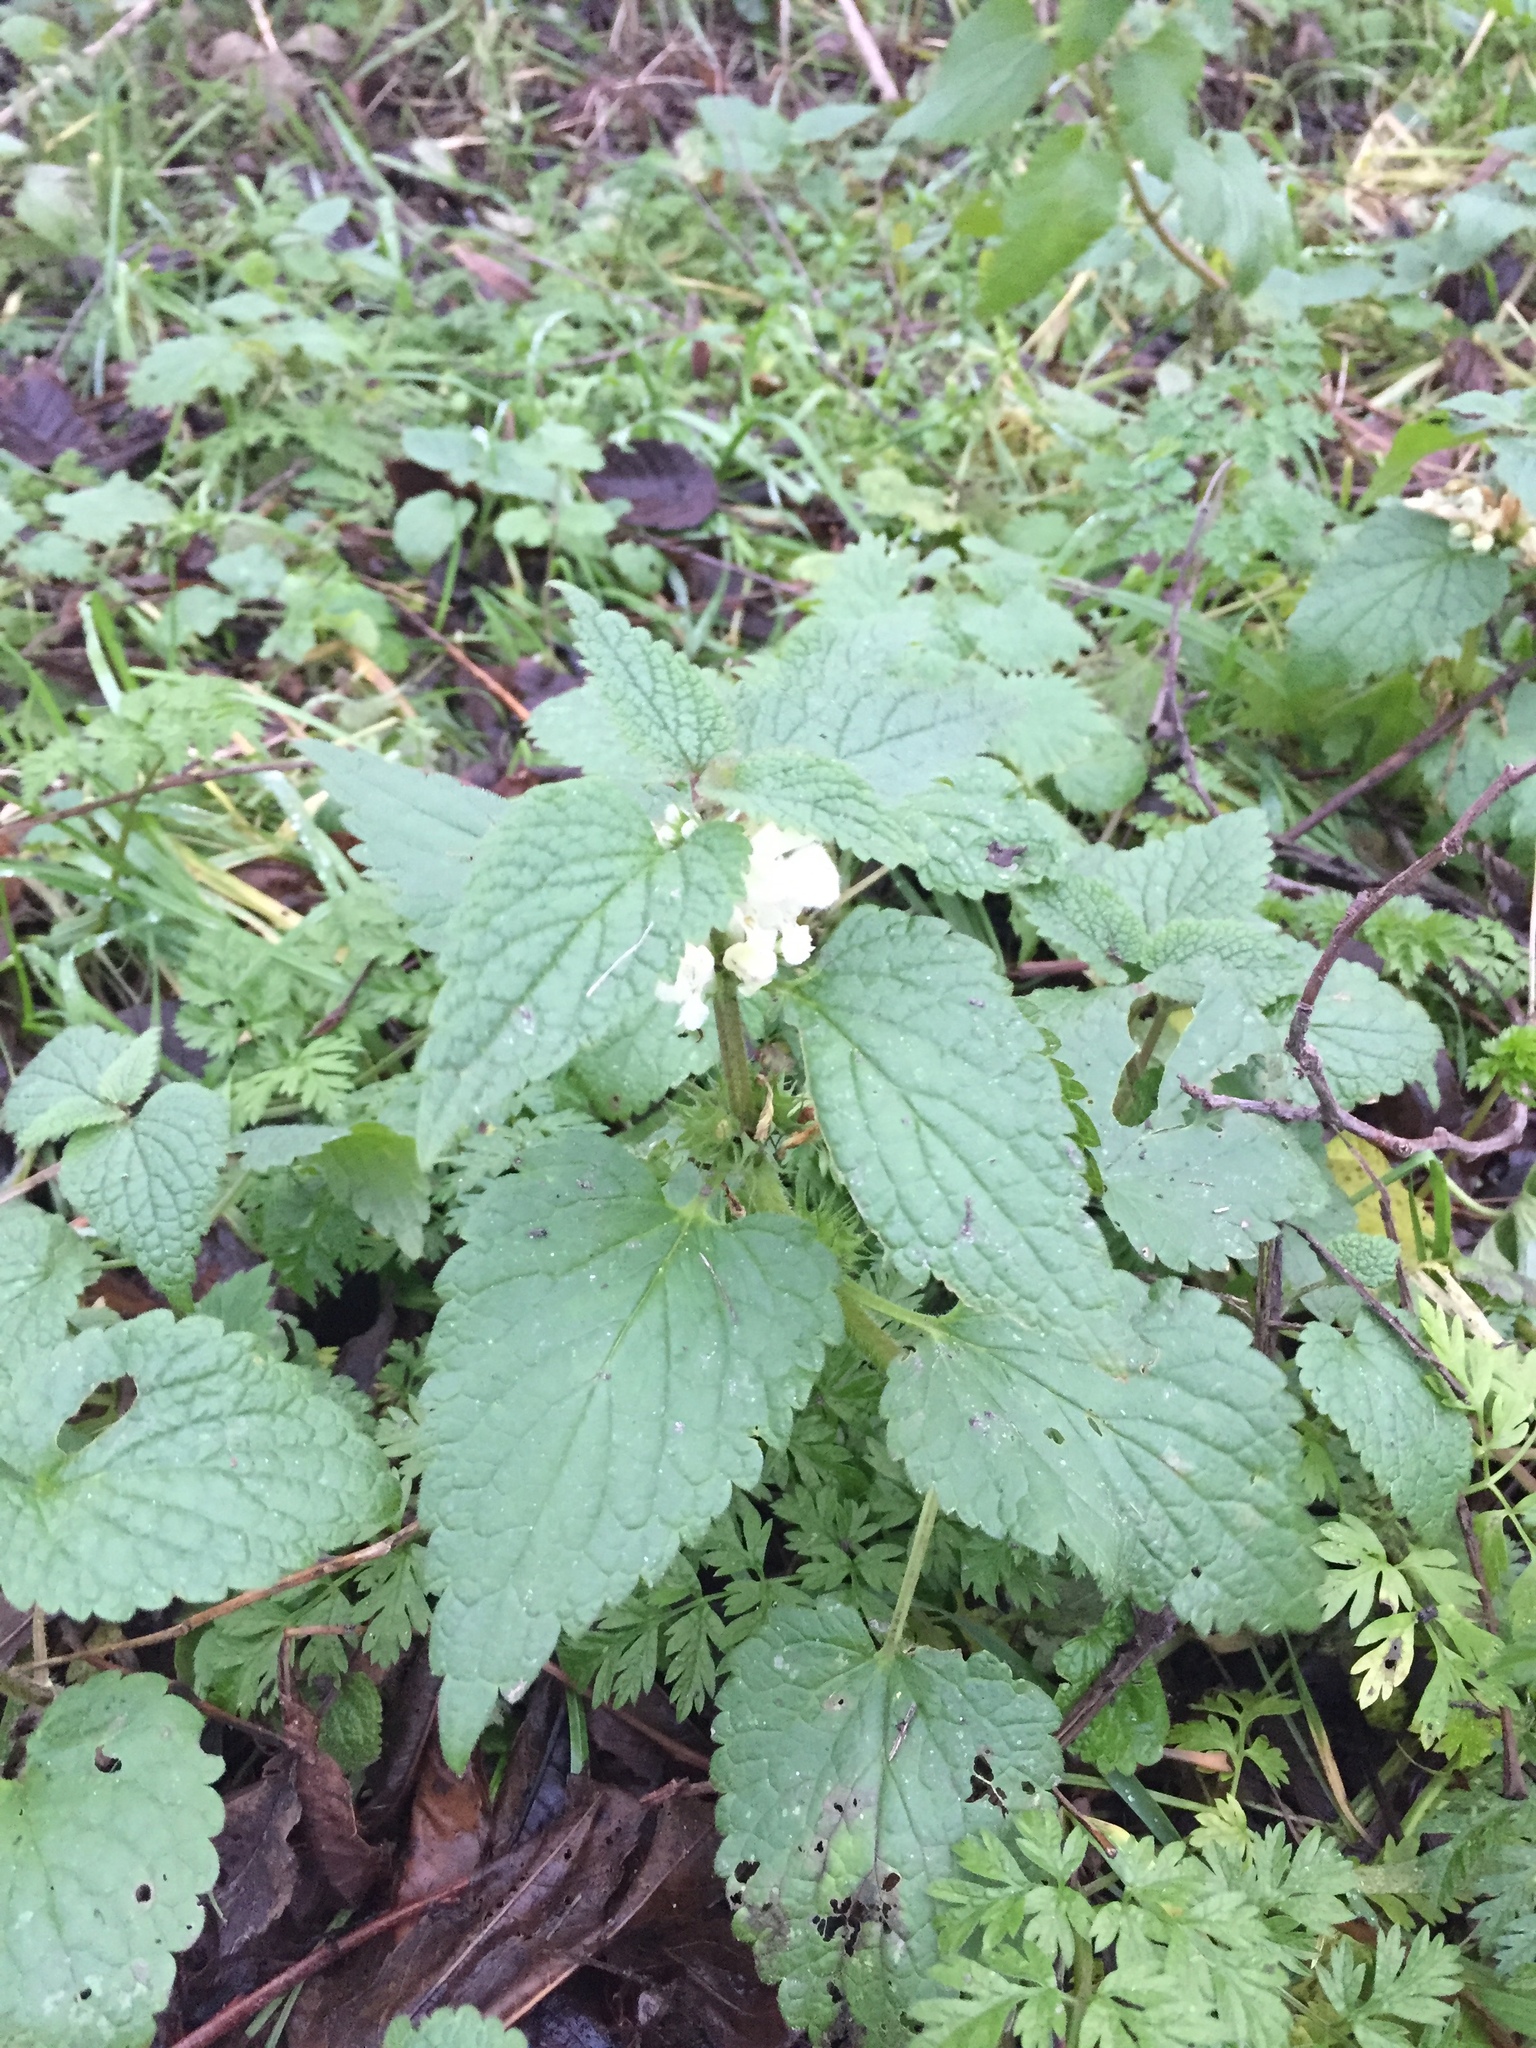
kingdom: Plantae
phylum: Tracheophyta
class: Magnoliopsida
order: Lamiales
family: Lamiaceae
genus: Lamium
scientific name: Lamium album
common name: White dead-nettle
